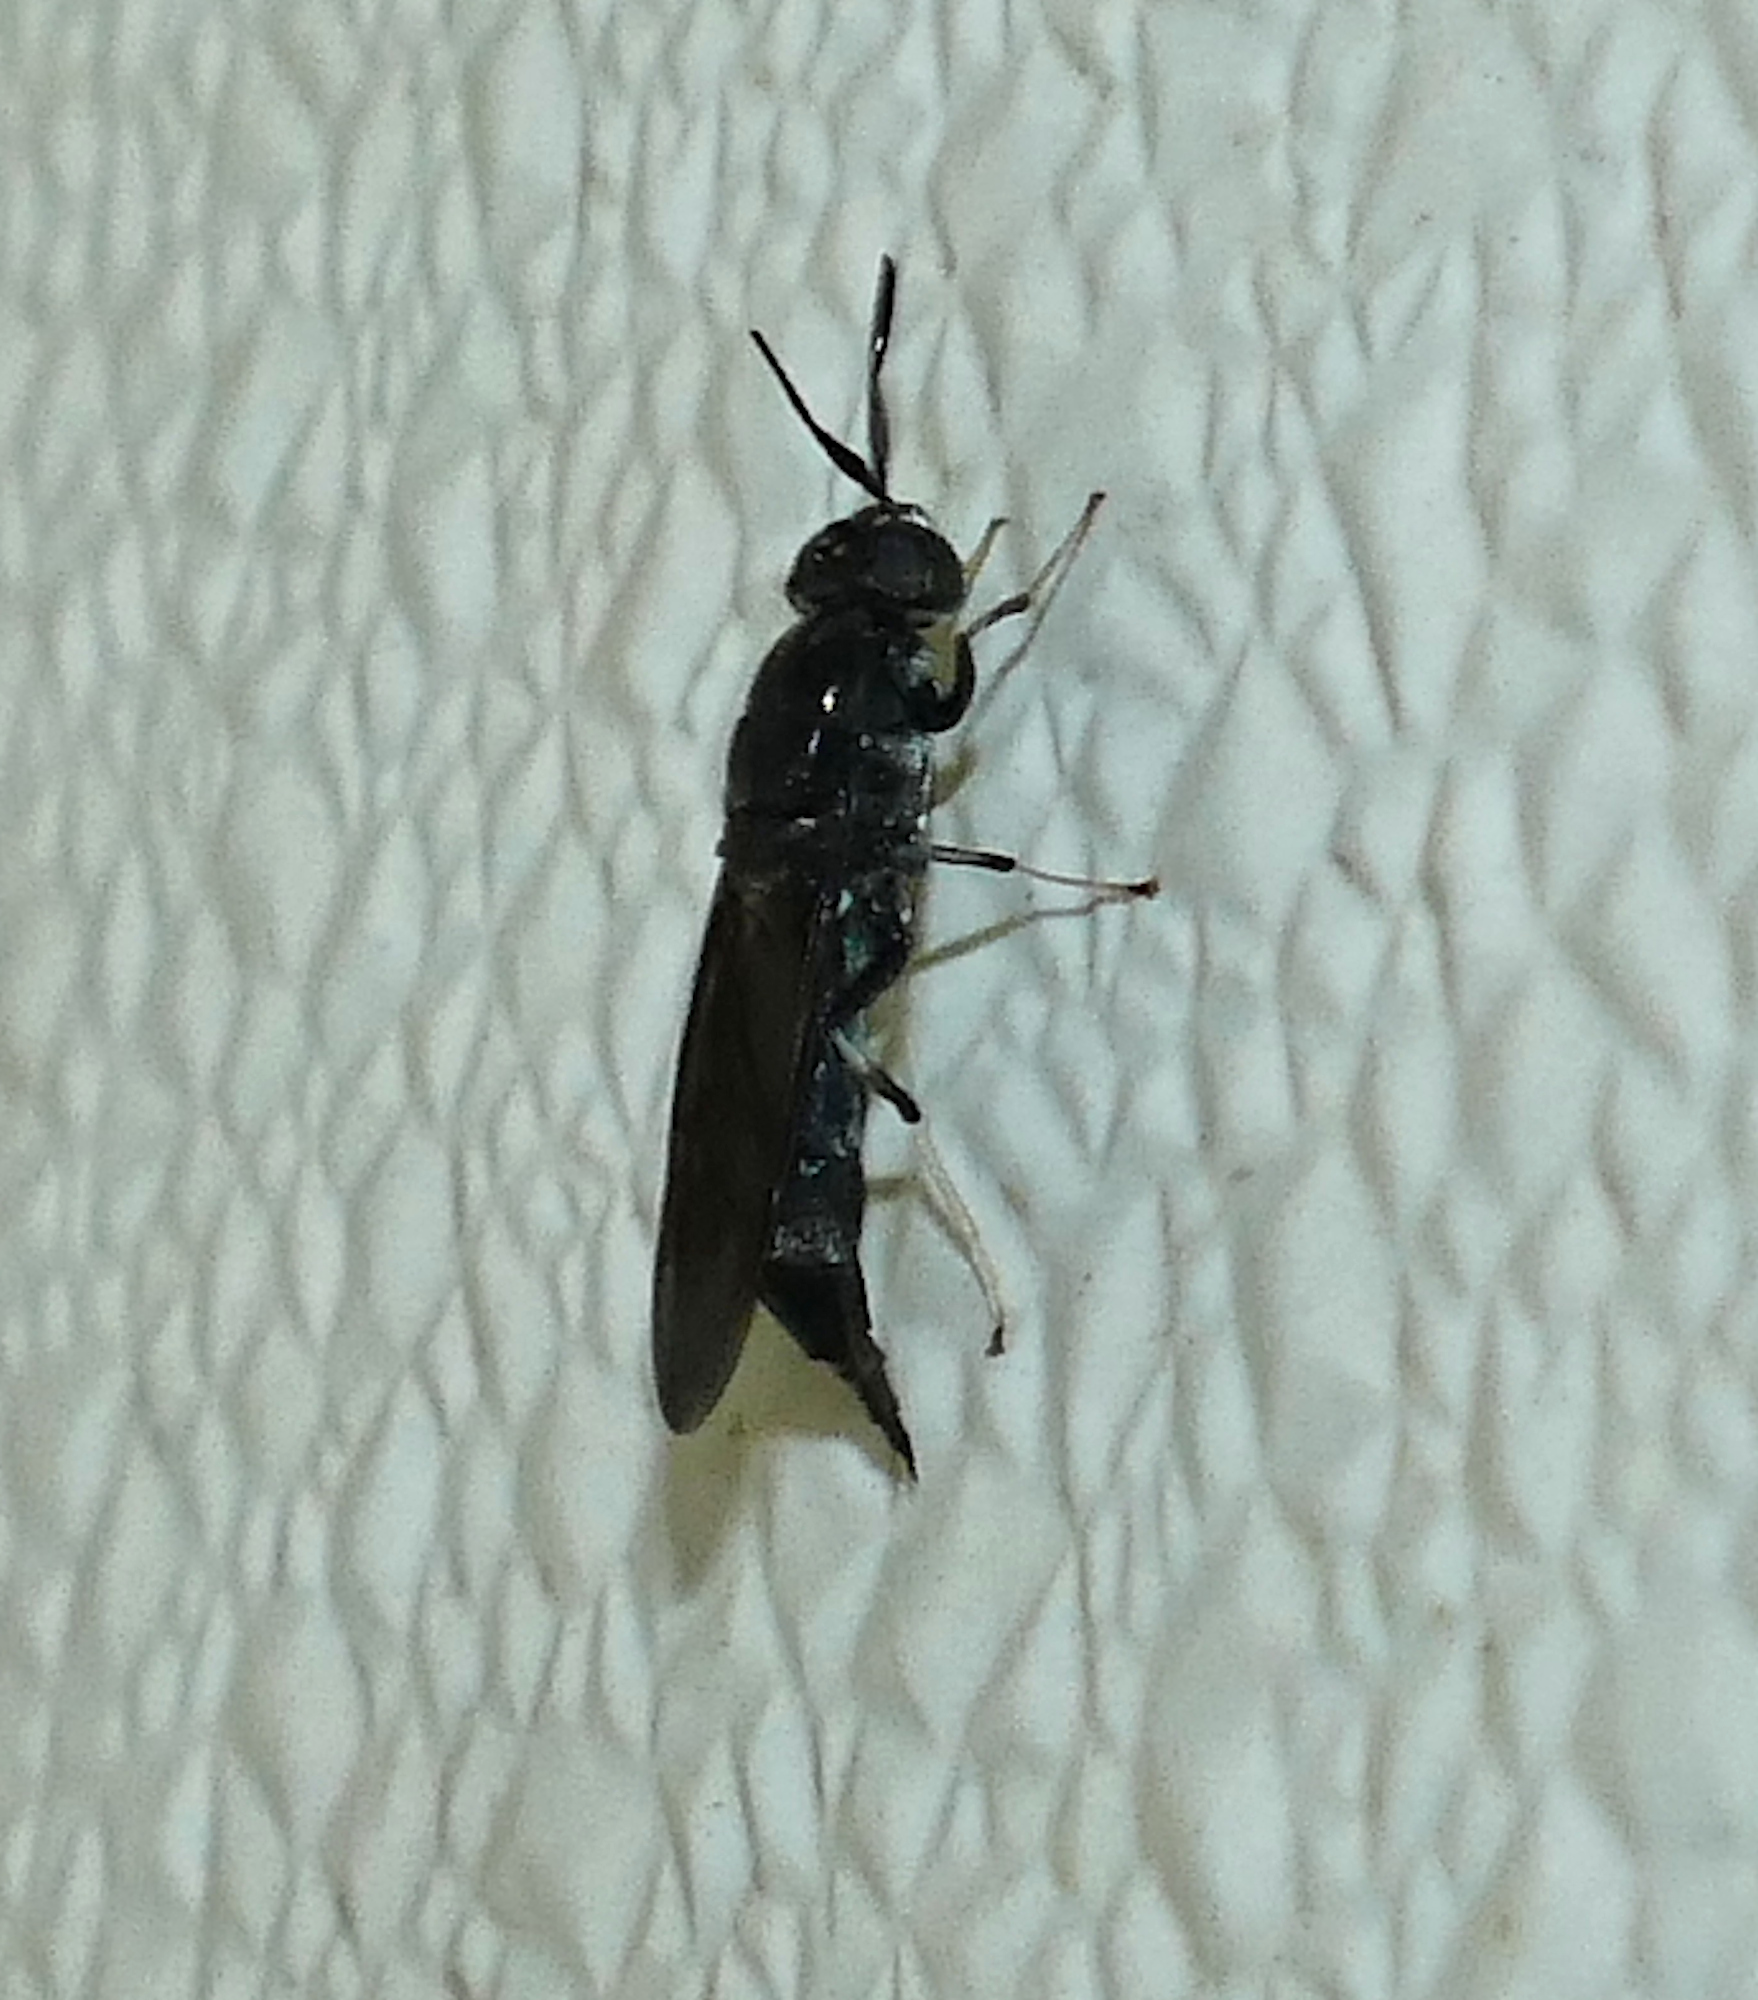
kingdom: Animalia
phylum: Arthropoda
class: Insecta
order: Diptera
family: Stratiomyidae
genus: Hermetia
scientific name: Hermetia illucens
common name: Black soldier fly
